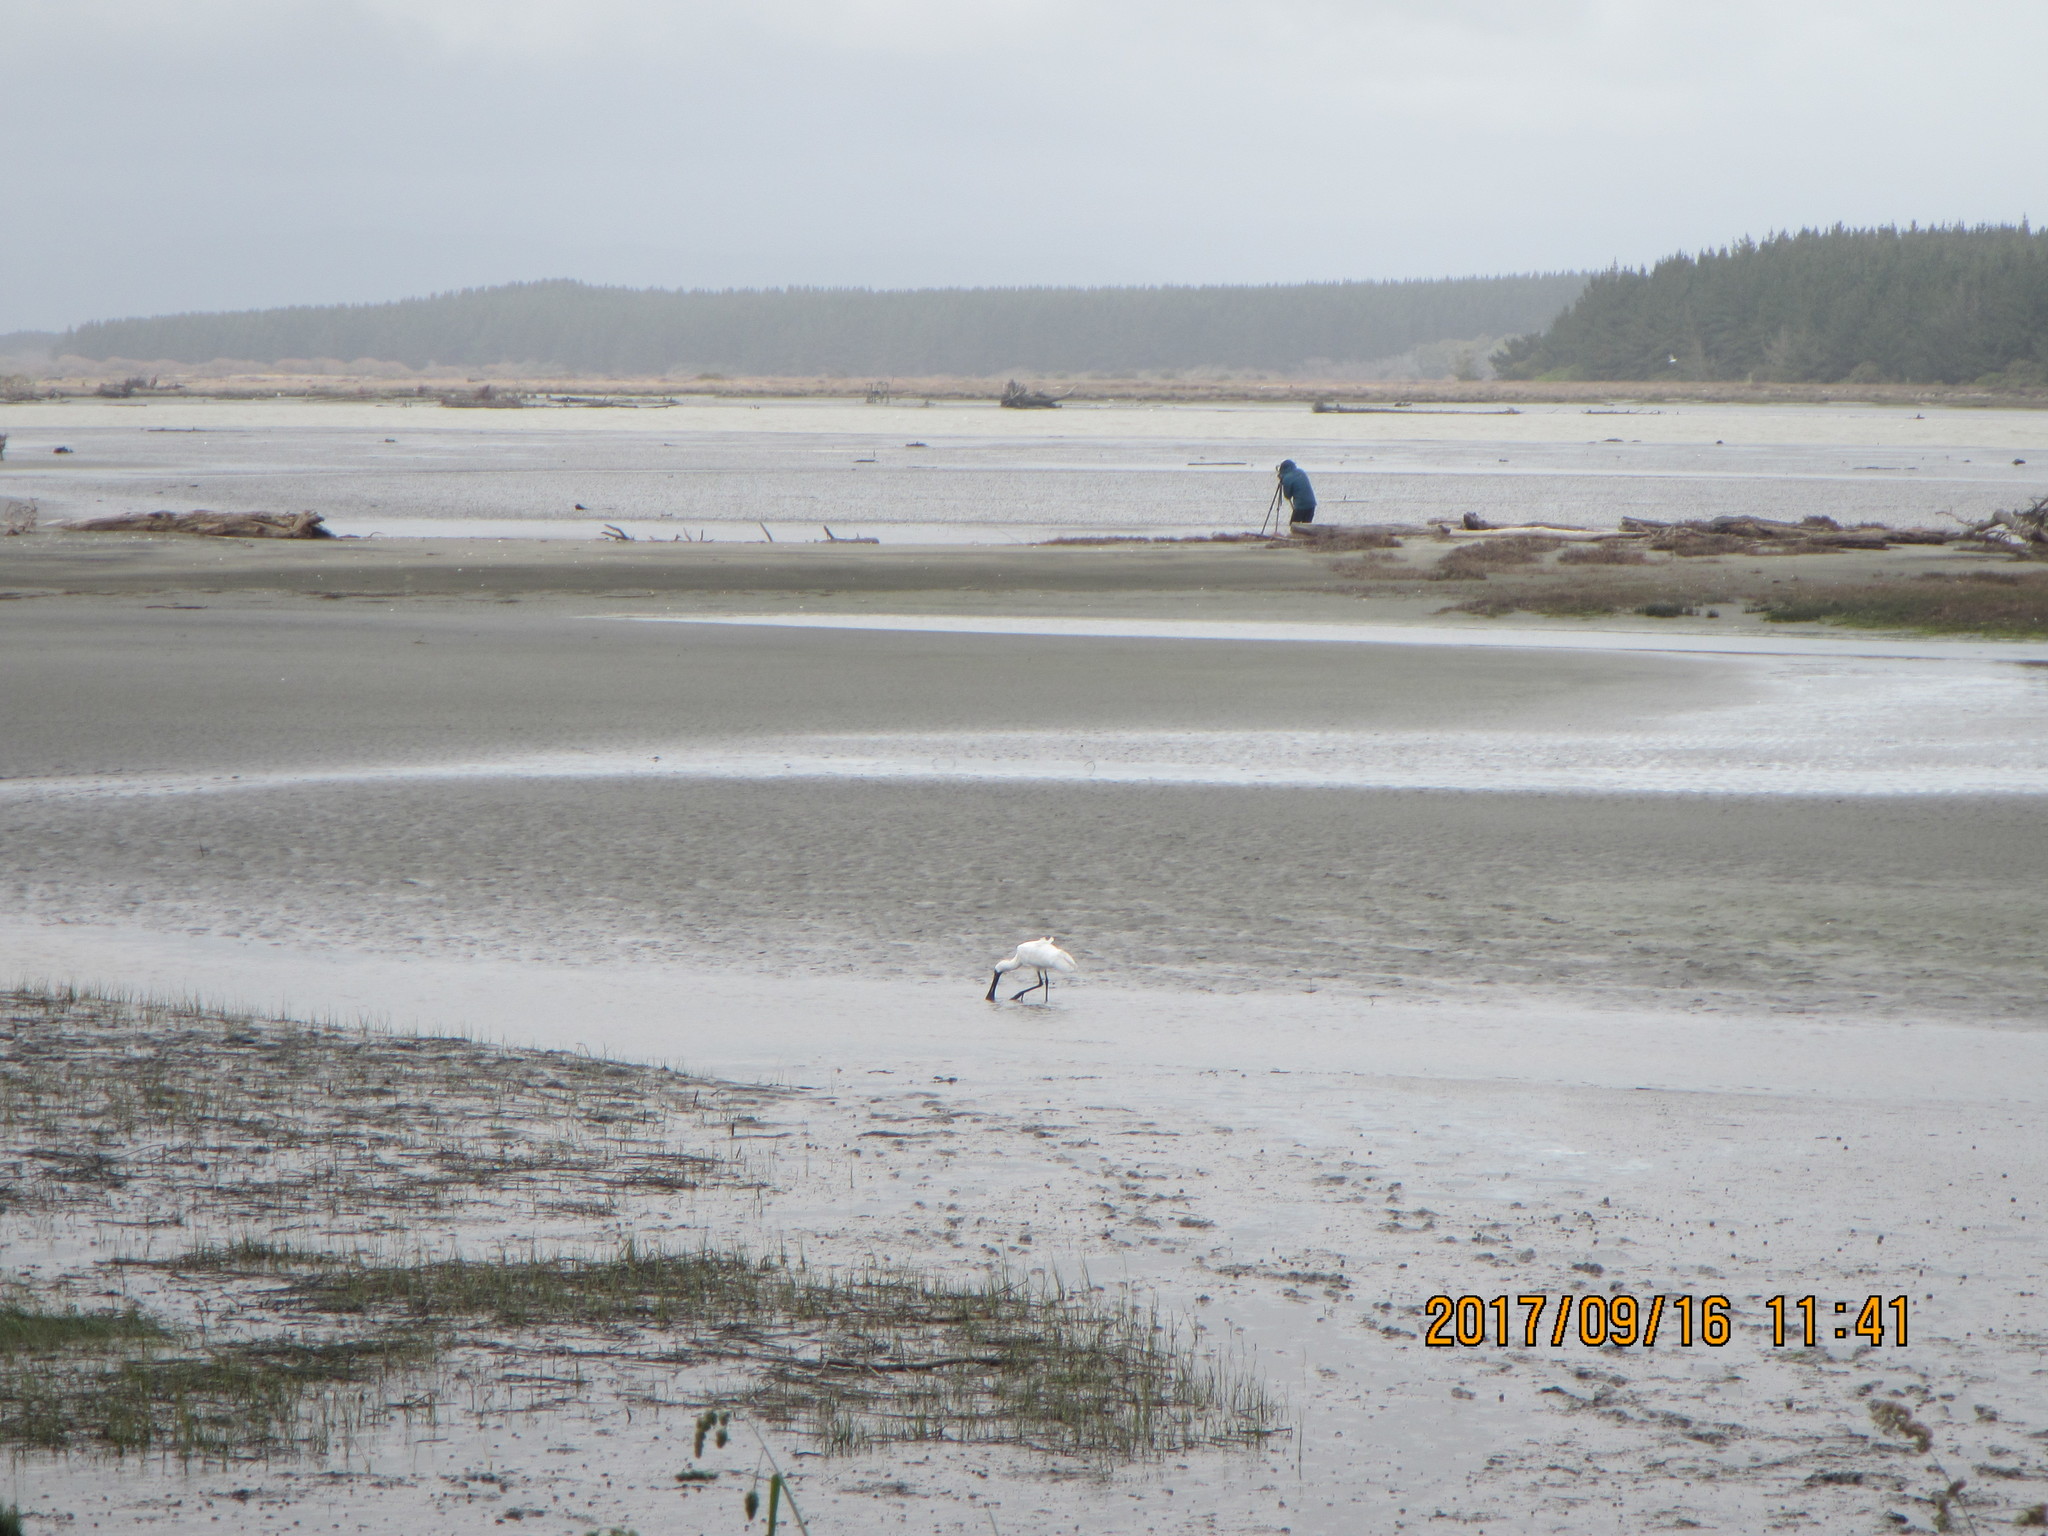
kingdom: Animalia
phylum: Chordata
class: Aves
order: Pelecaniformes
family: Threskiornithidae
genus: Platalea
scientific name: Platalea regia
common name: Royal spoonbill
